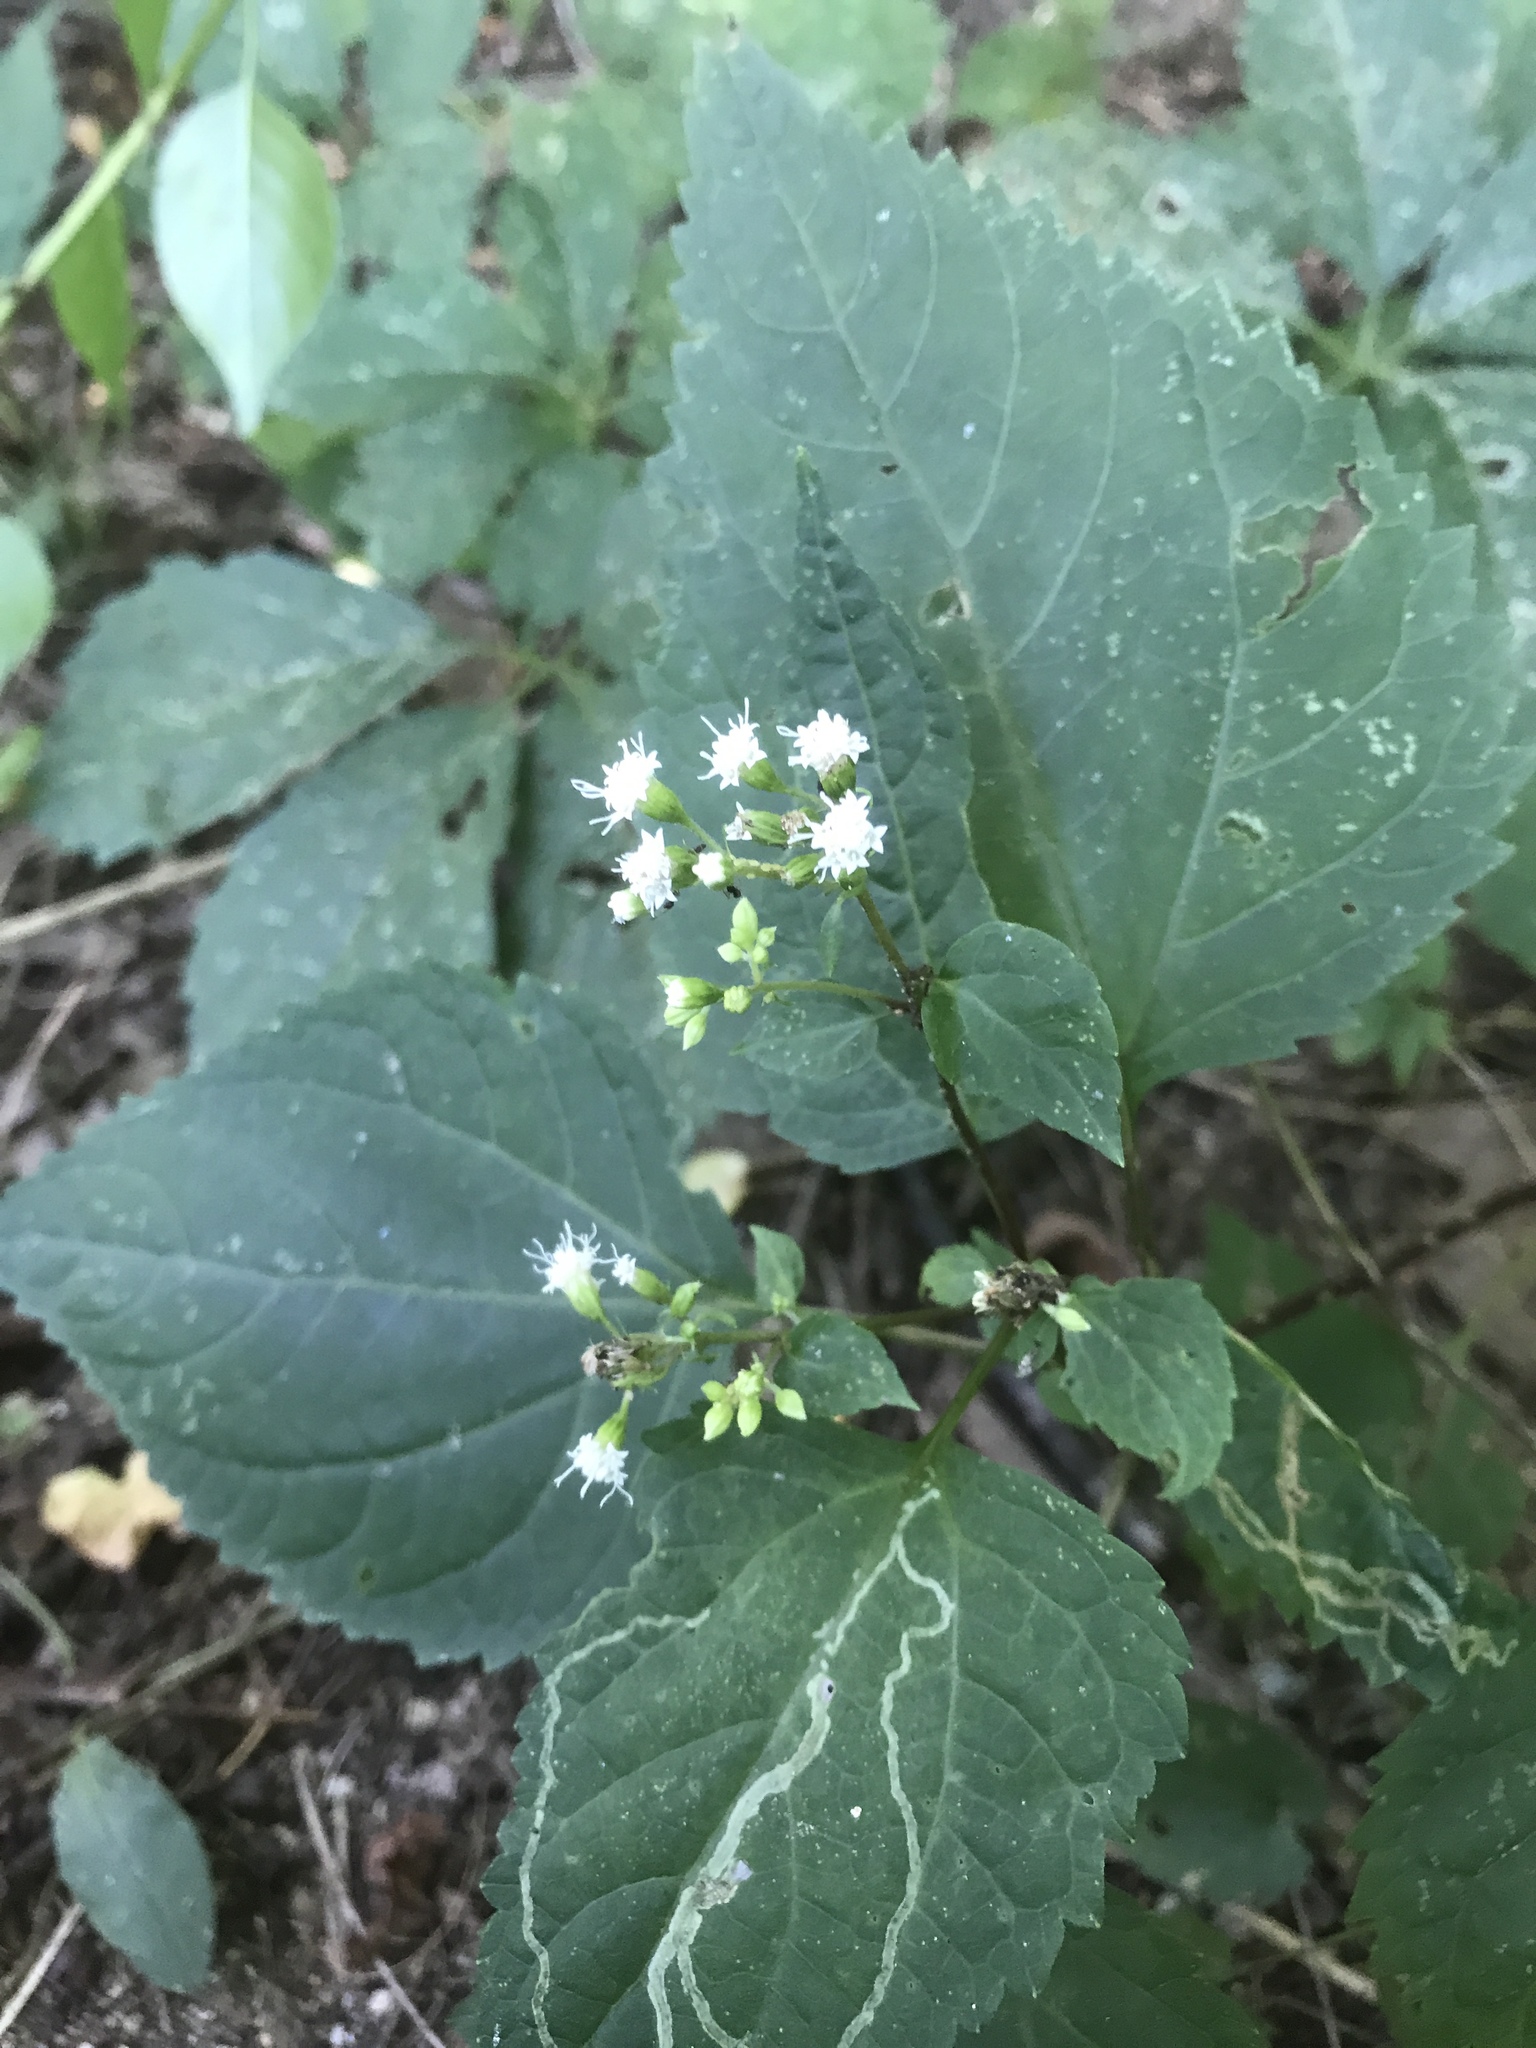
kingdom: Plantae
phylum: Tracheophyta
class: Magnoliopsida
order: Asterales
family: Asteraceae
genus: Ageratina
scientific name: Ageratina altissima
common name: White snakeroot
